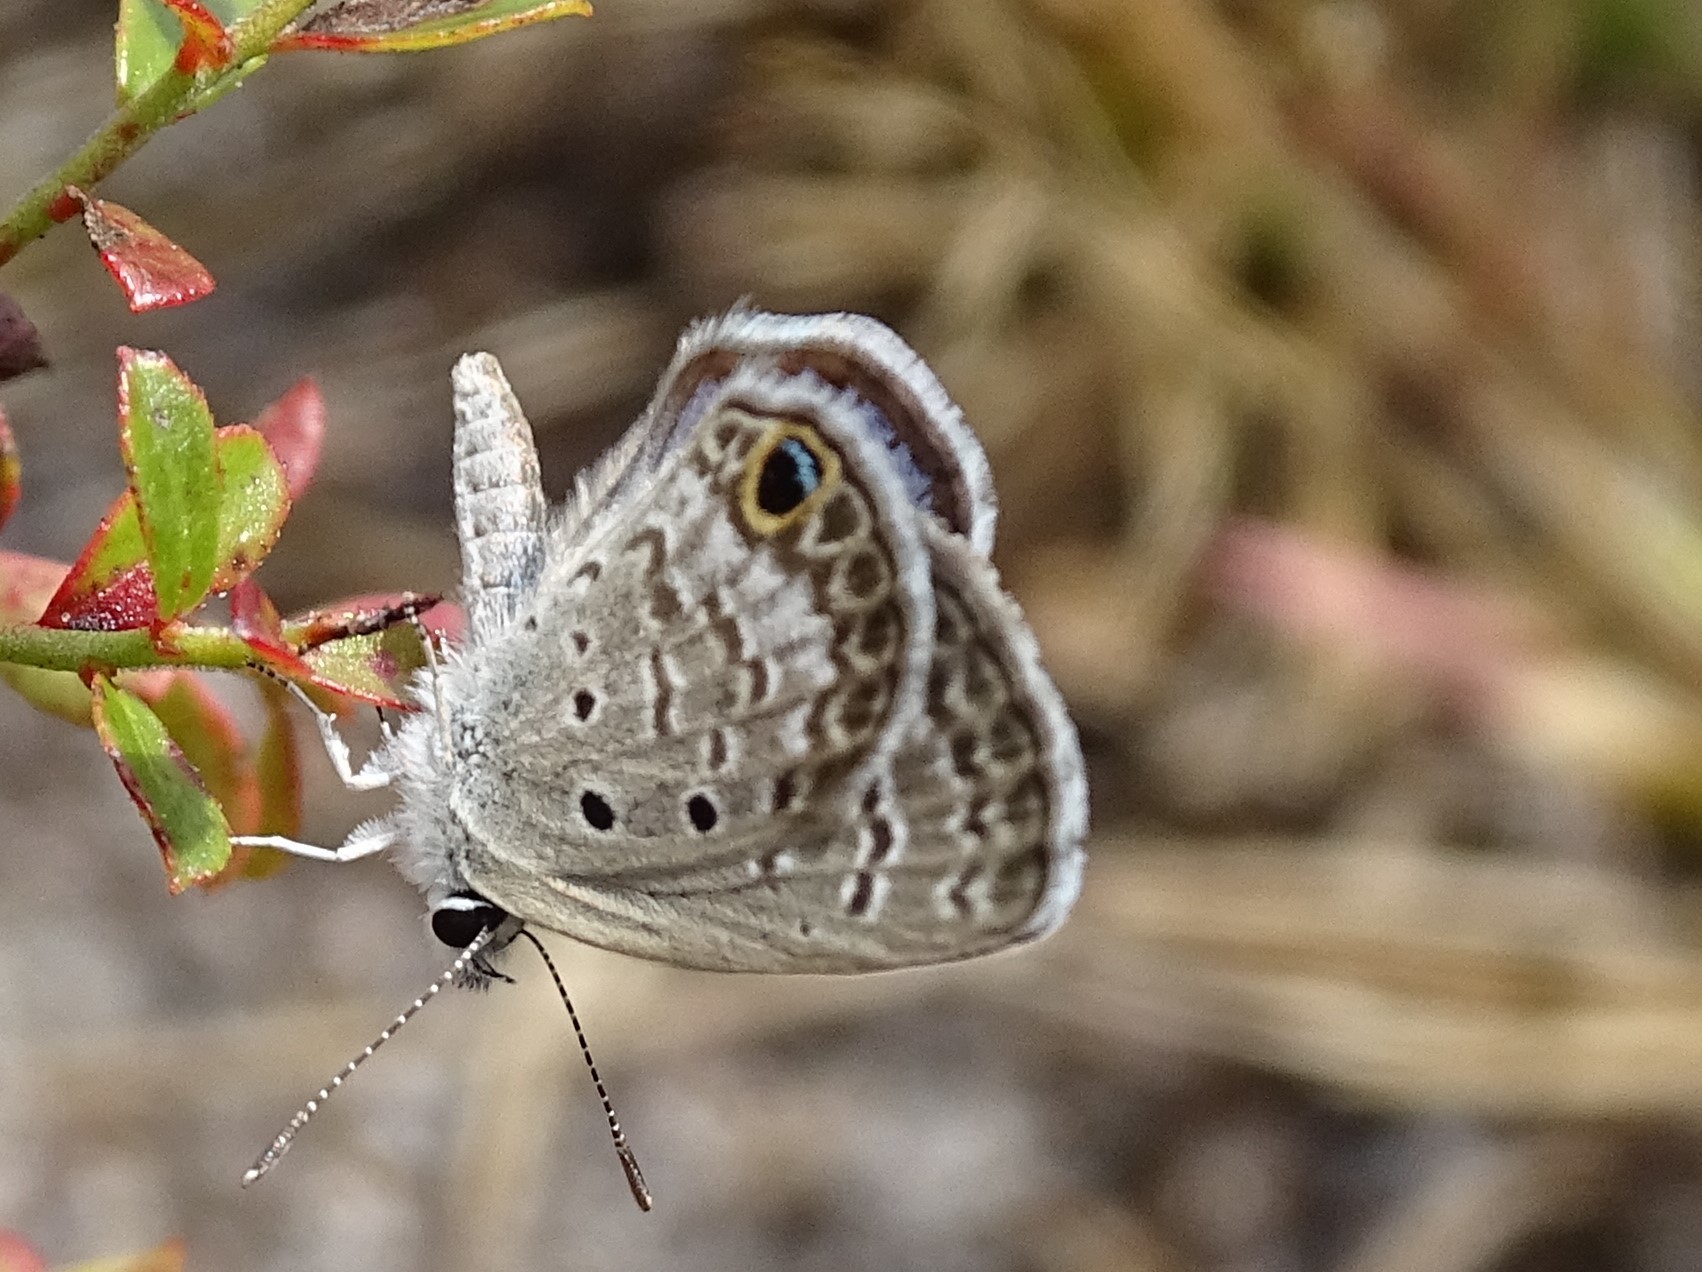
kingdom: Animalia
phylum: Arthropoda
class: Insecta
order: Lepidoptera
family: Lycaenidae
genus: Hemiargus
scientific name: Hemiargus ceraunus
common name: Ceraunus blue
